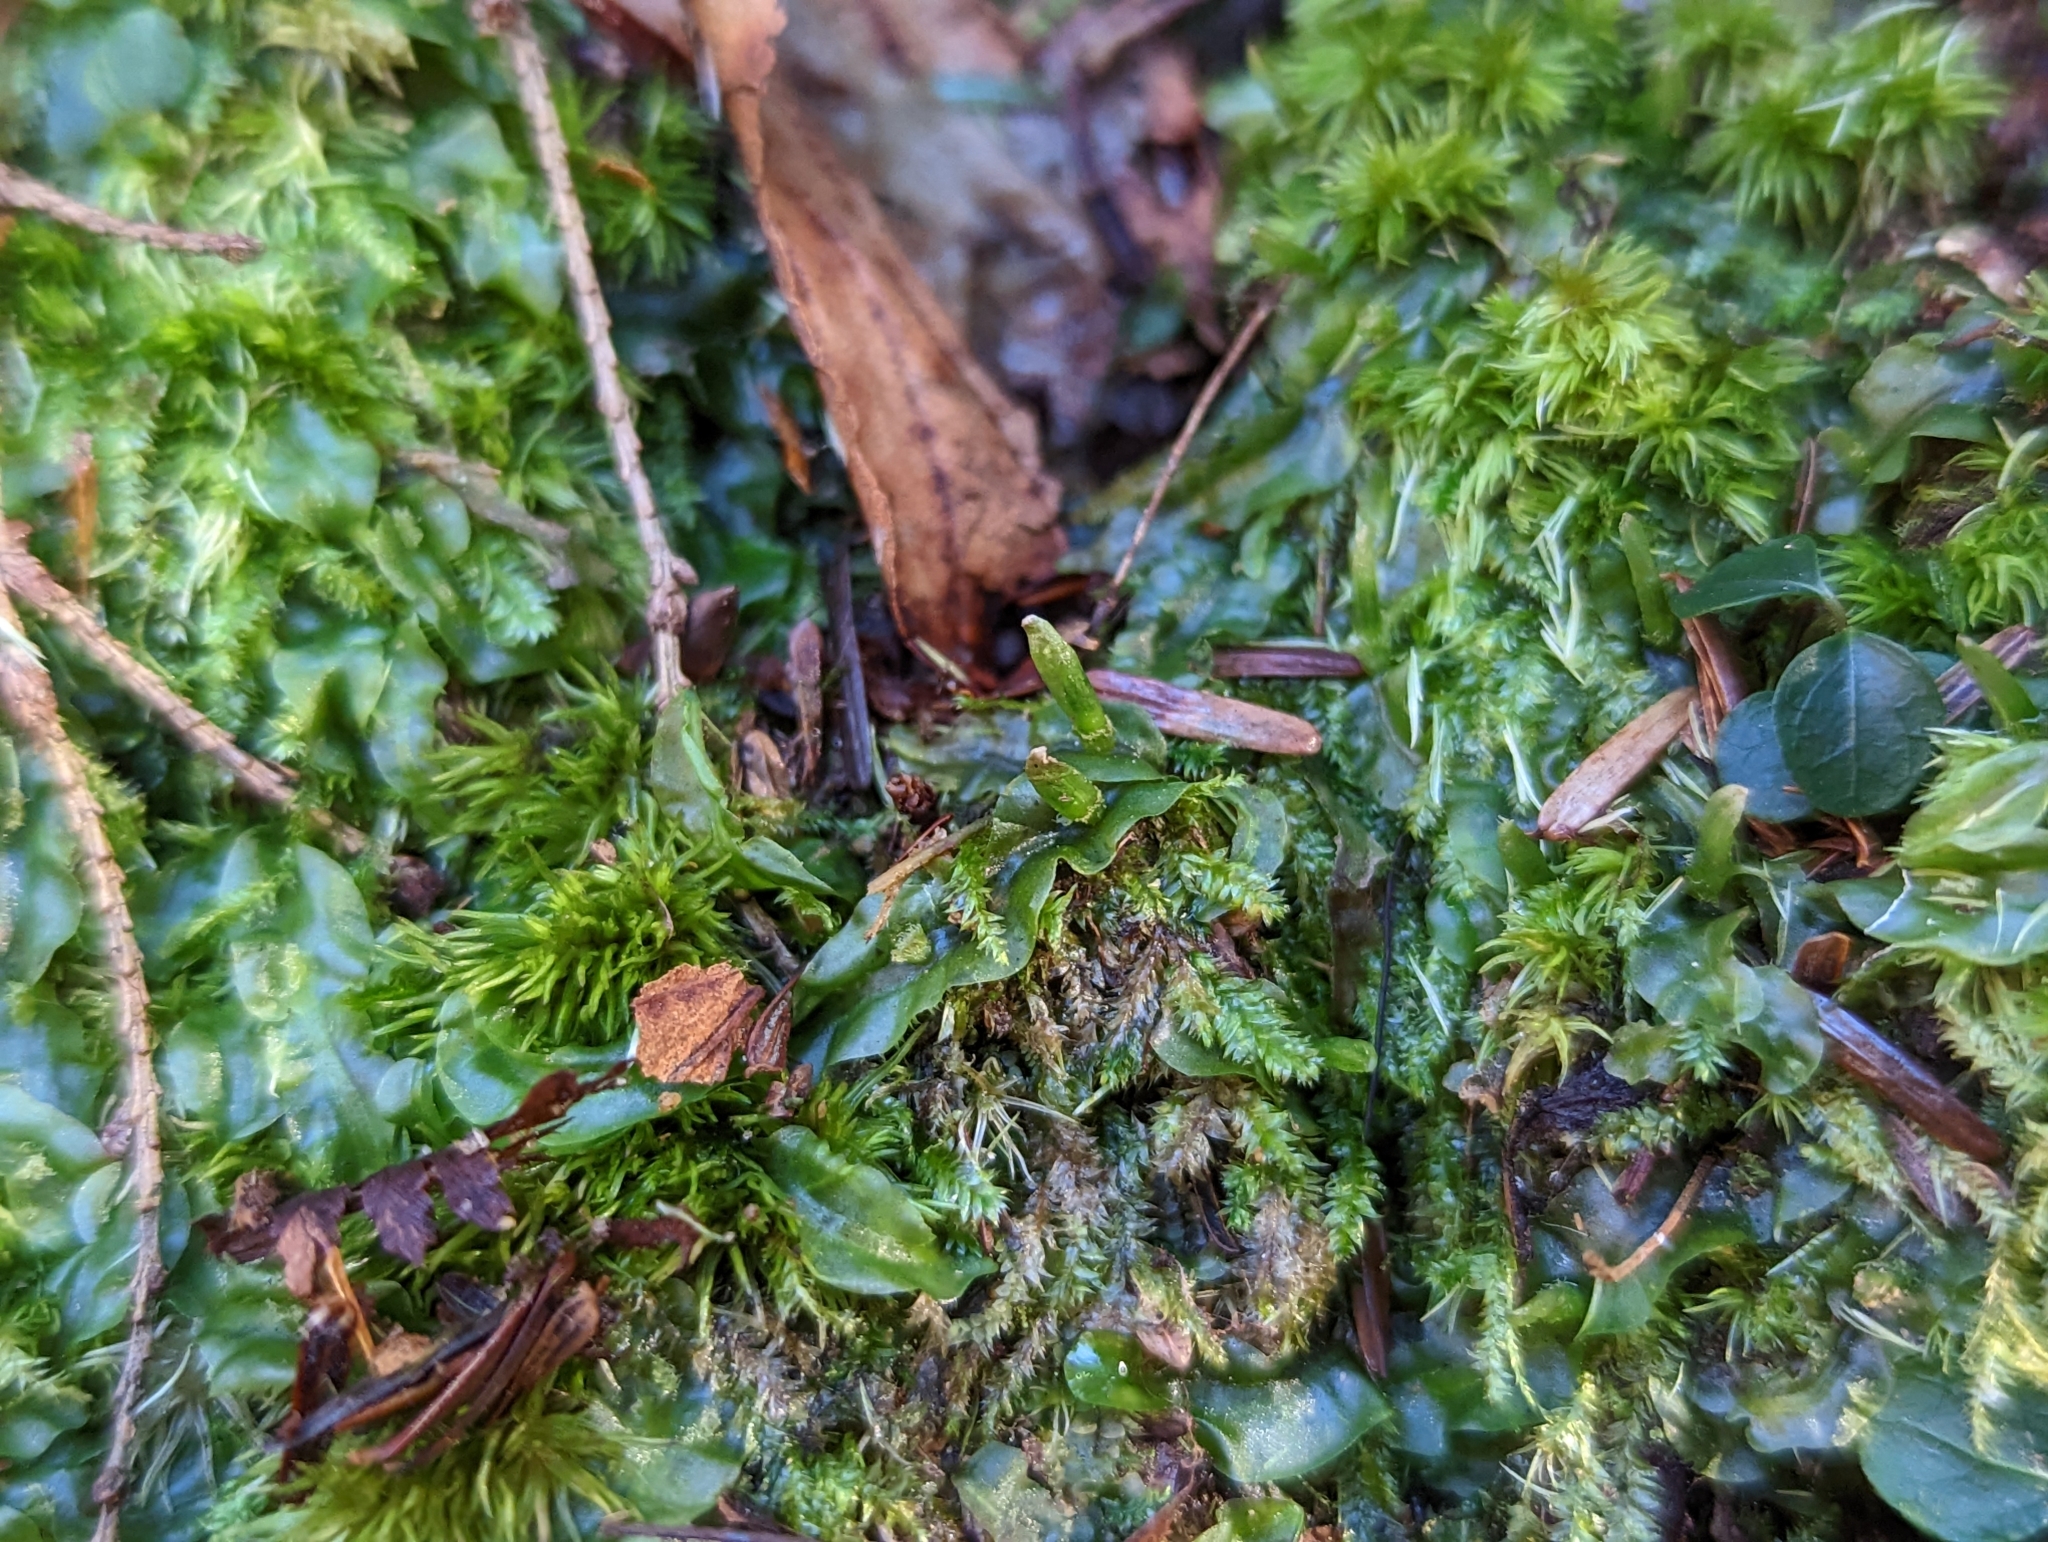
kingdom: Plantae
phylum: Marchantiophyta
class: Jungermanniopsida
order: Pallaviciniales
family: Pallaviciniaceae
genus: Pallavicinia
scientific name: Pallavicinia lyellii
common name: Veilwort
